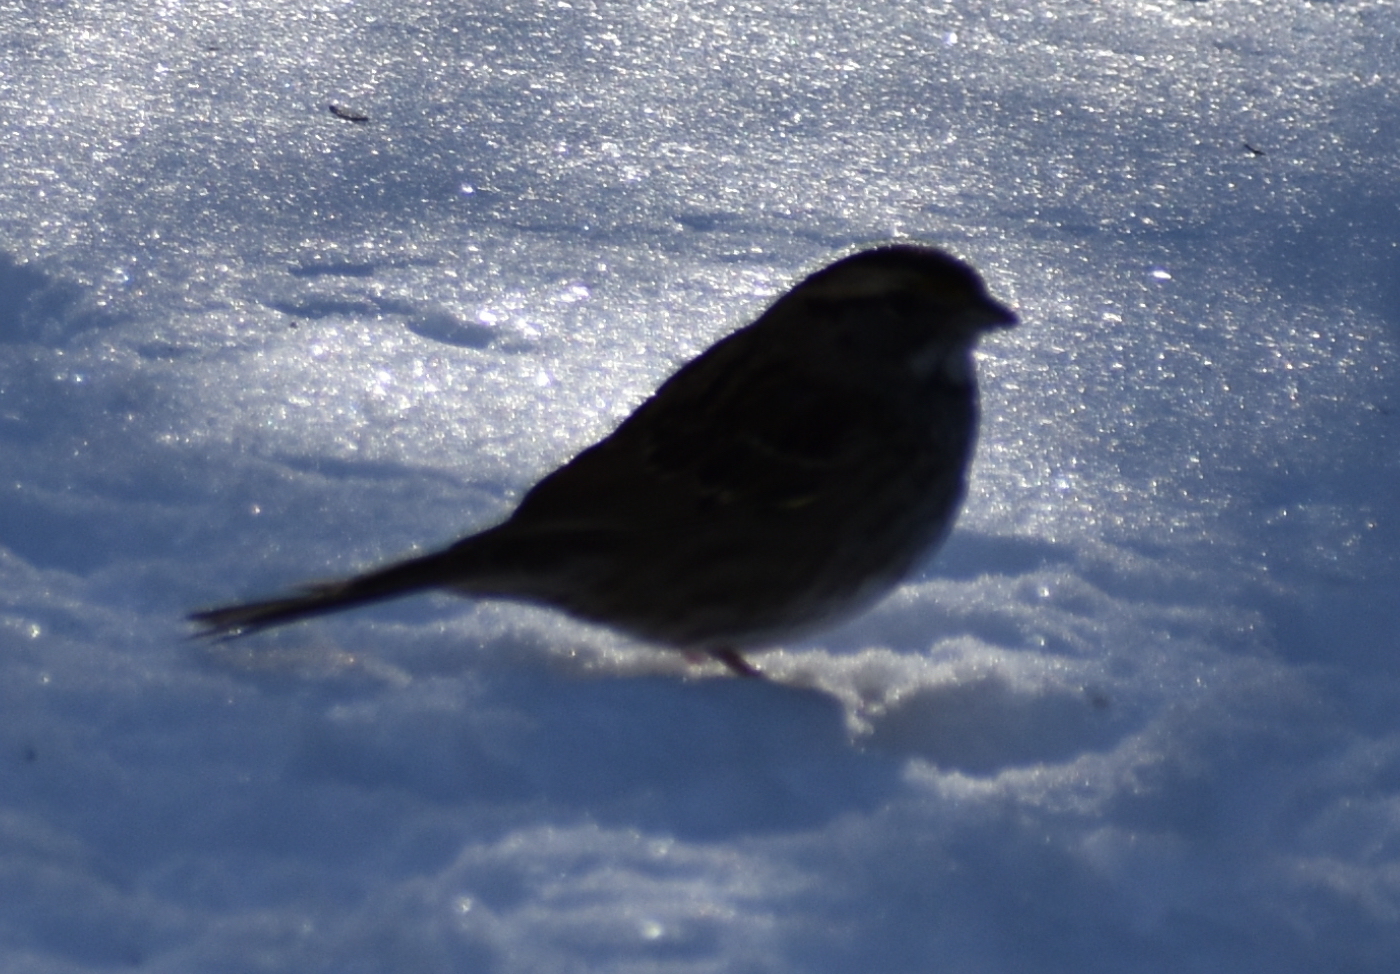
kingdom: Animalia
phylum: Chordata
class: Aves
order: Passeriformes
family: Passerellidae
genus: Zonotrichia
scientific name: Zonotrichia albicollis
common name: White-throated sparrow
